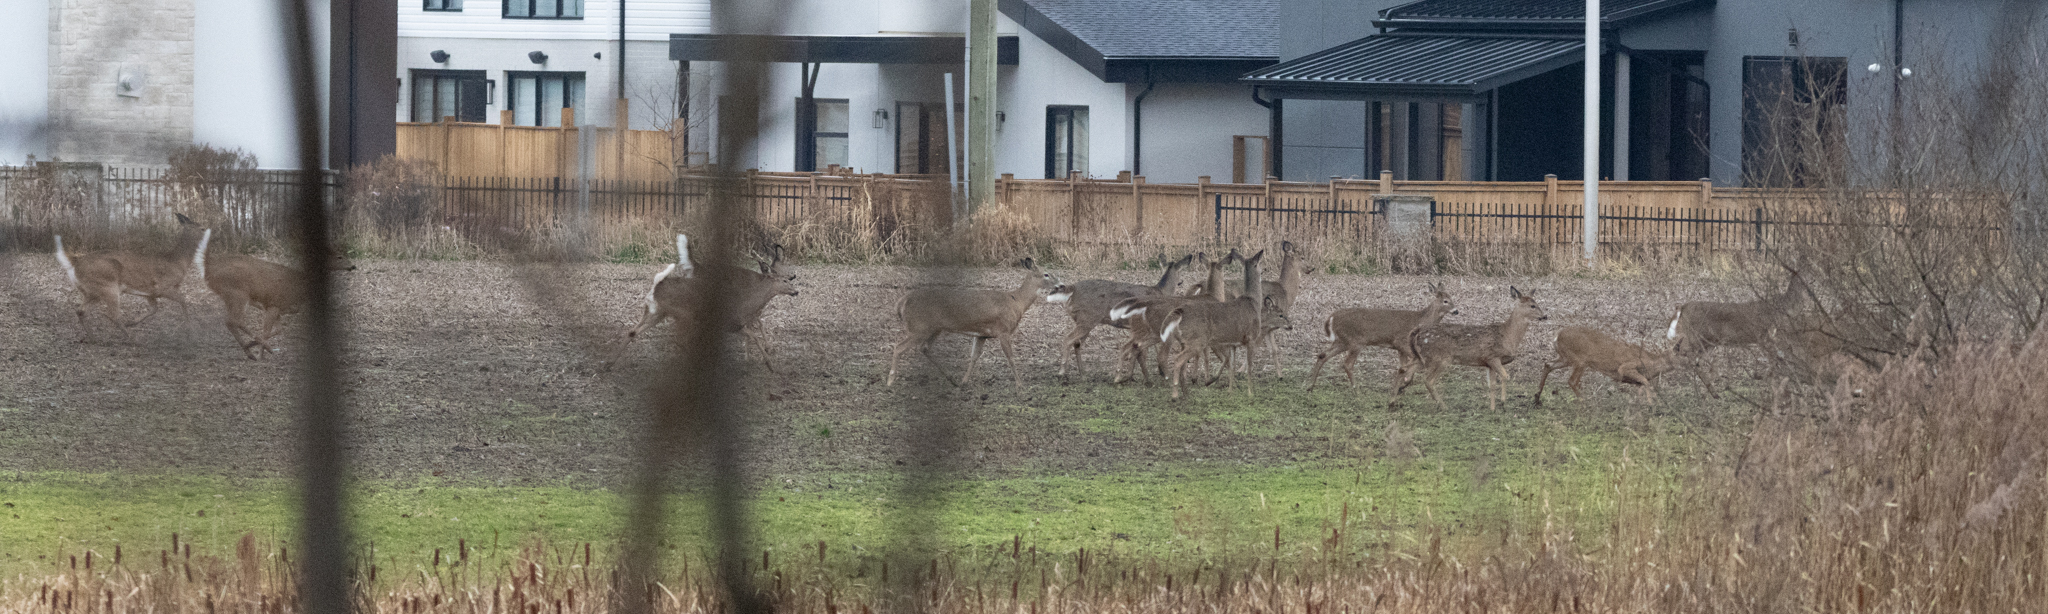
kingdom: Animalia
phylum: Chordata
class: Mammalia
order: Artiodactyla
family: Cervidae
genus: Odocoileus
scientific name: Odocoileus virginianus
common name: White-tailed deer
